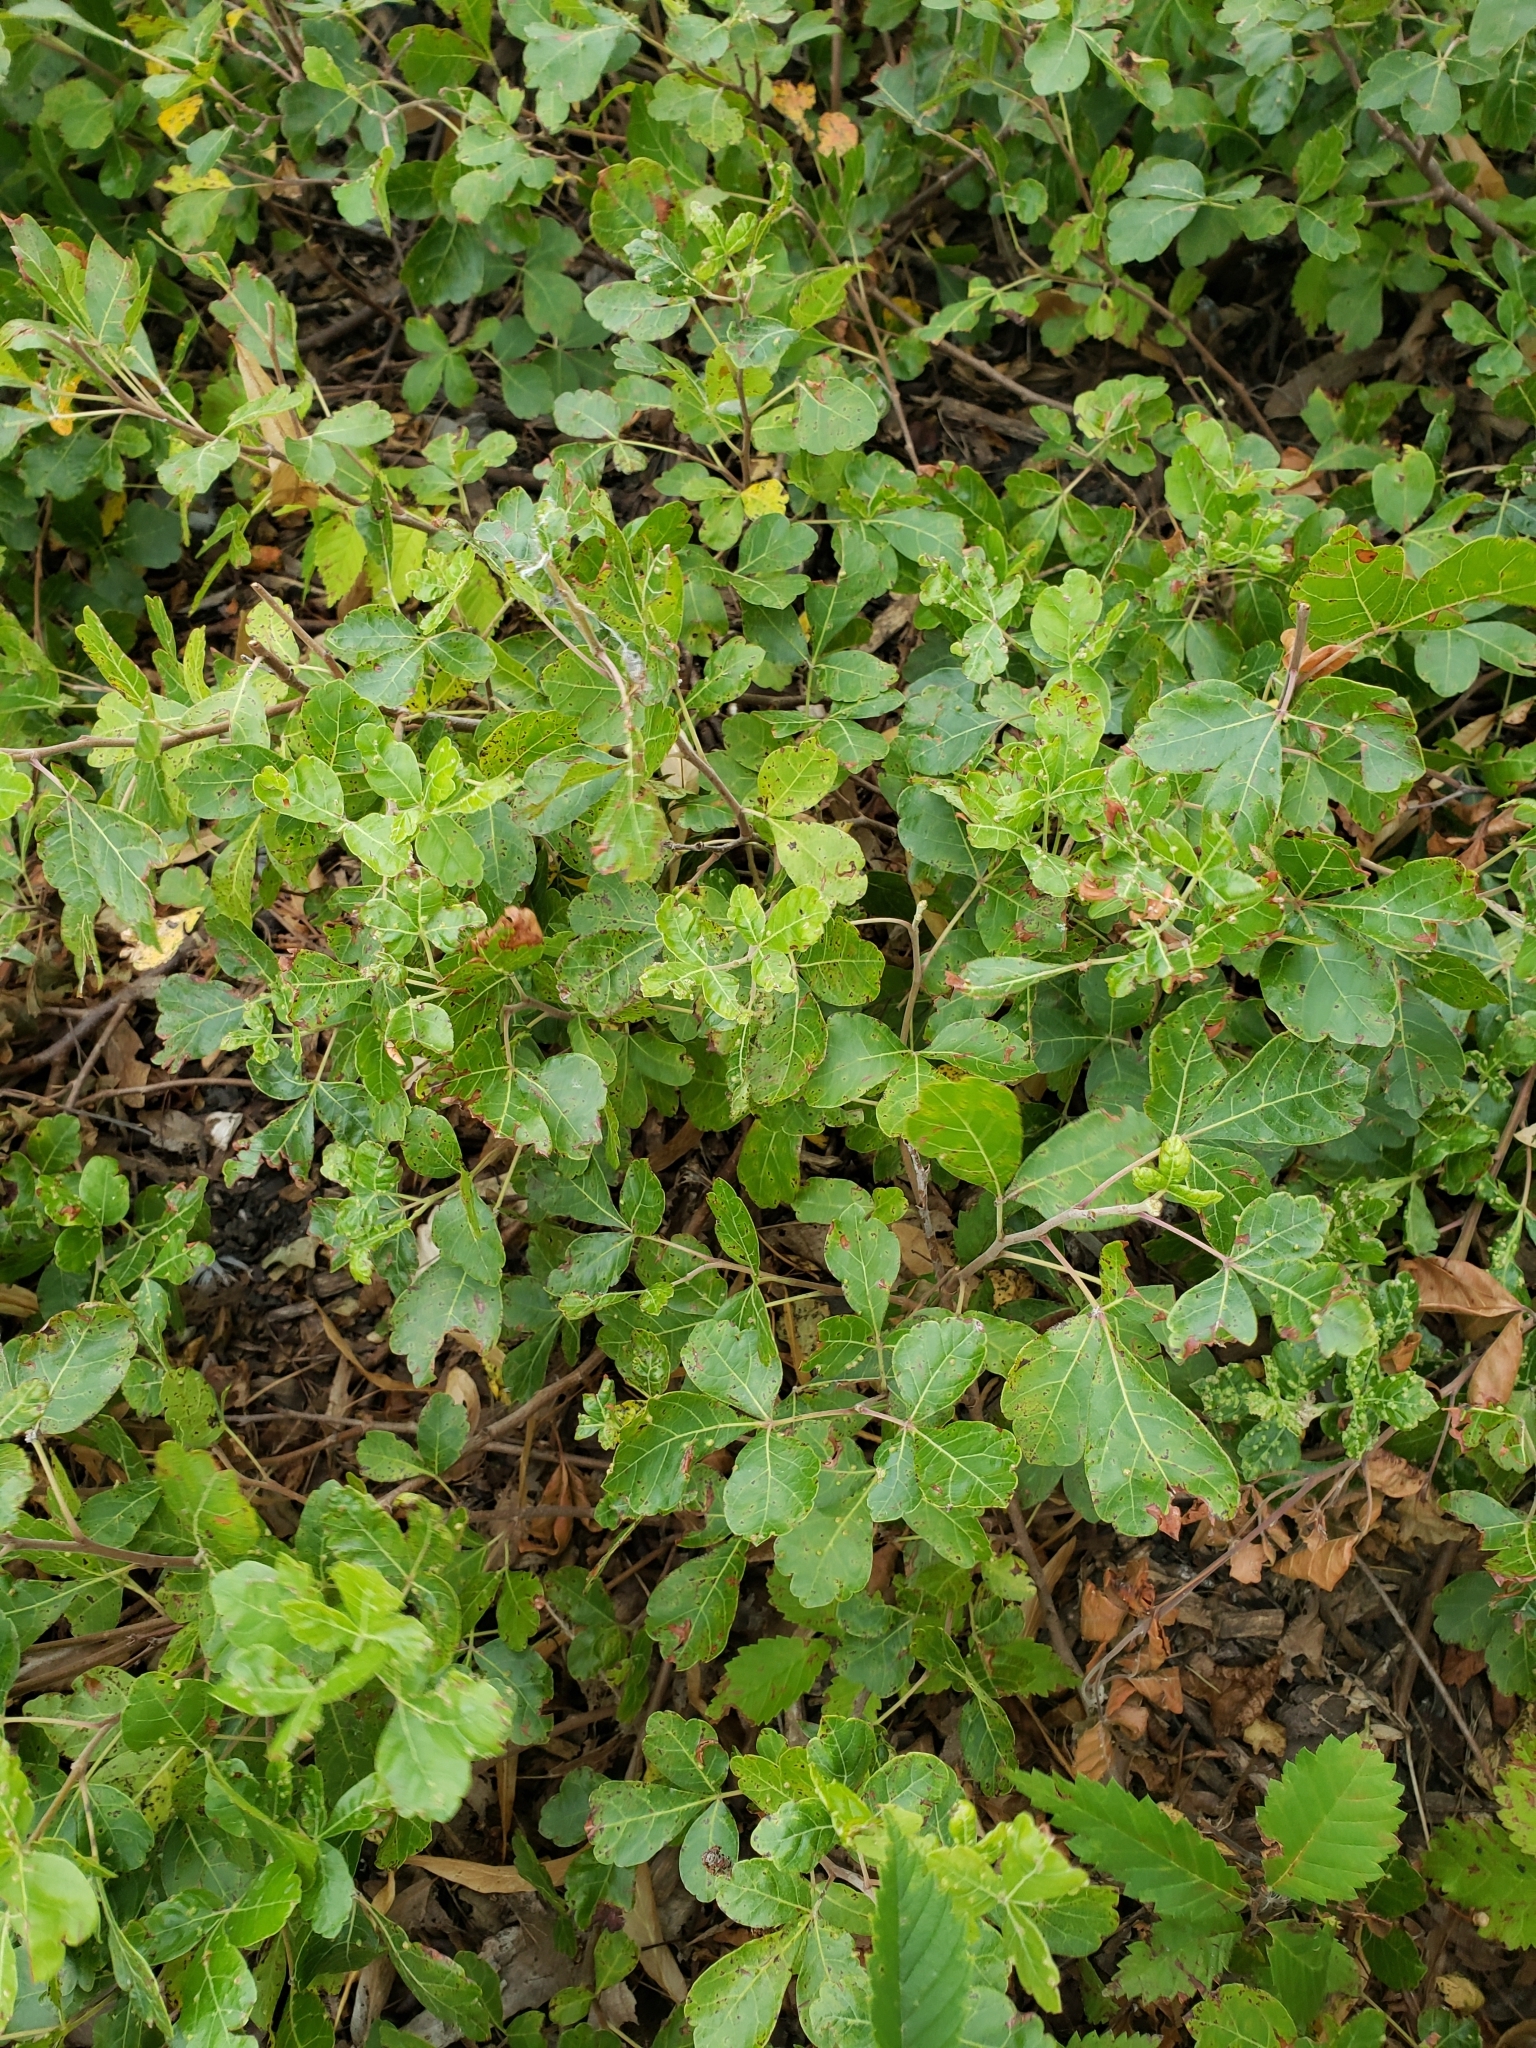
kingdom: Plantae
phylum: Tracheophyta
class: Magnoliopsida
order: Sapindales
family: Anacardiaceae
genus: Rhus
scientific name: Rhus aromatica
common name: Aromatic sumac
